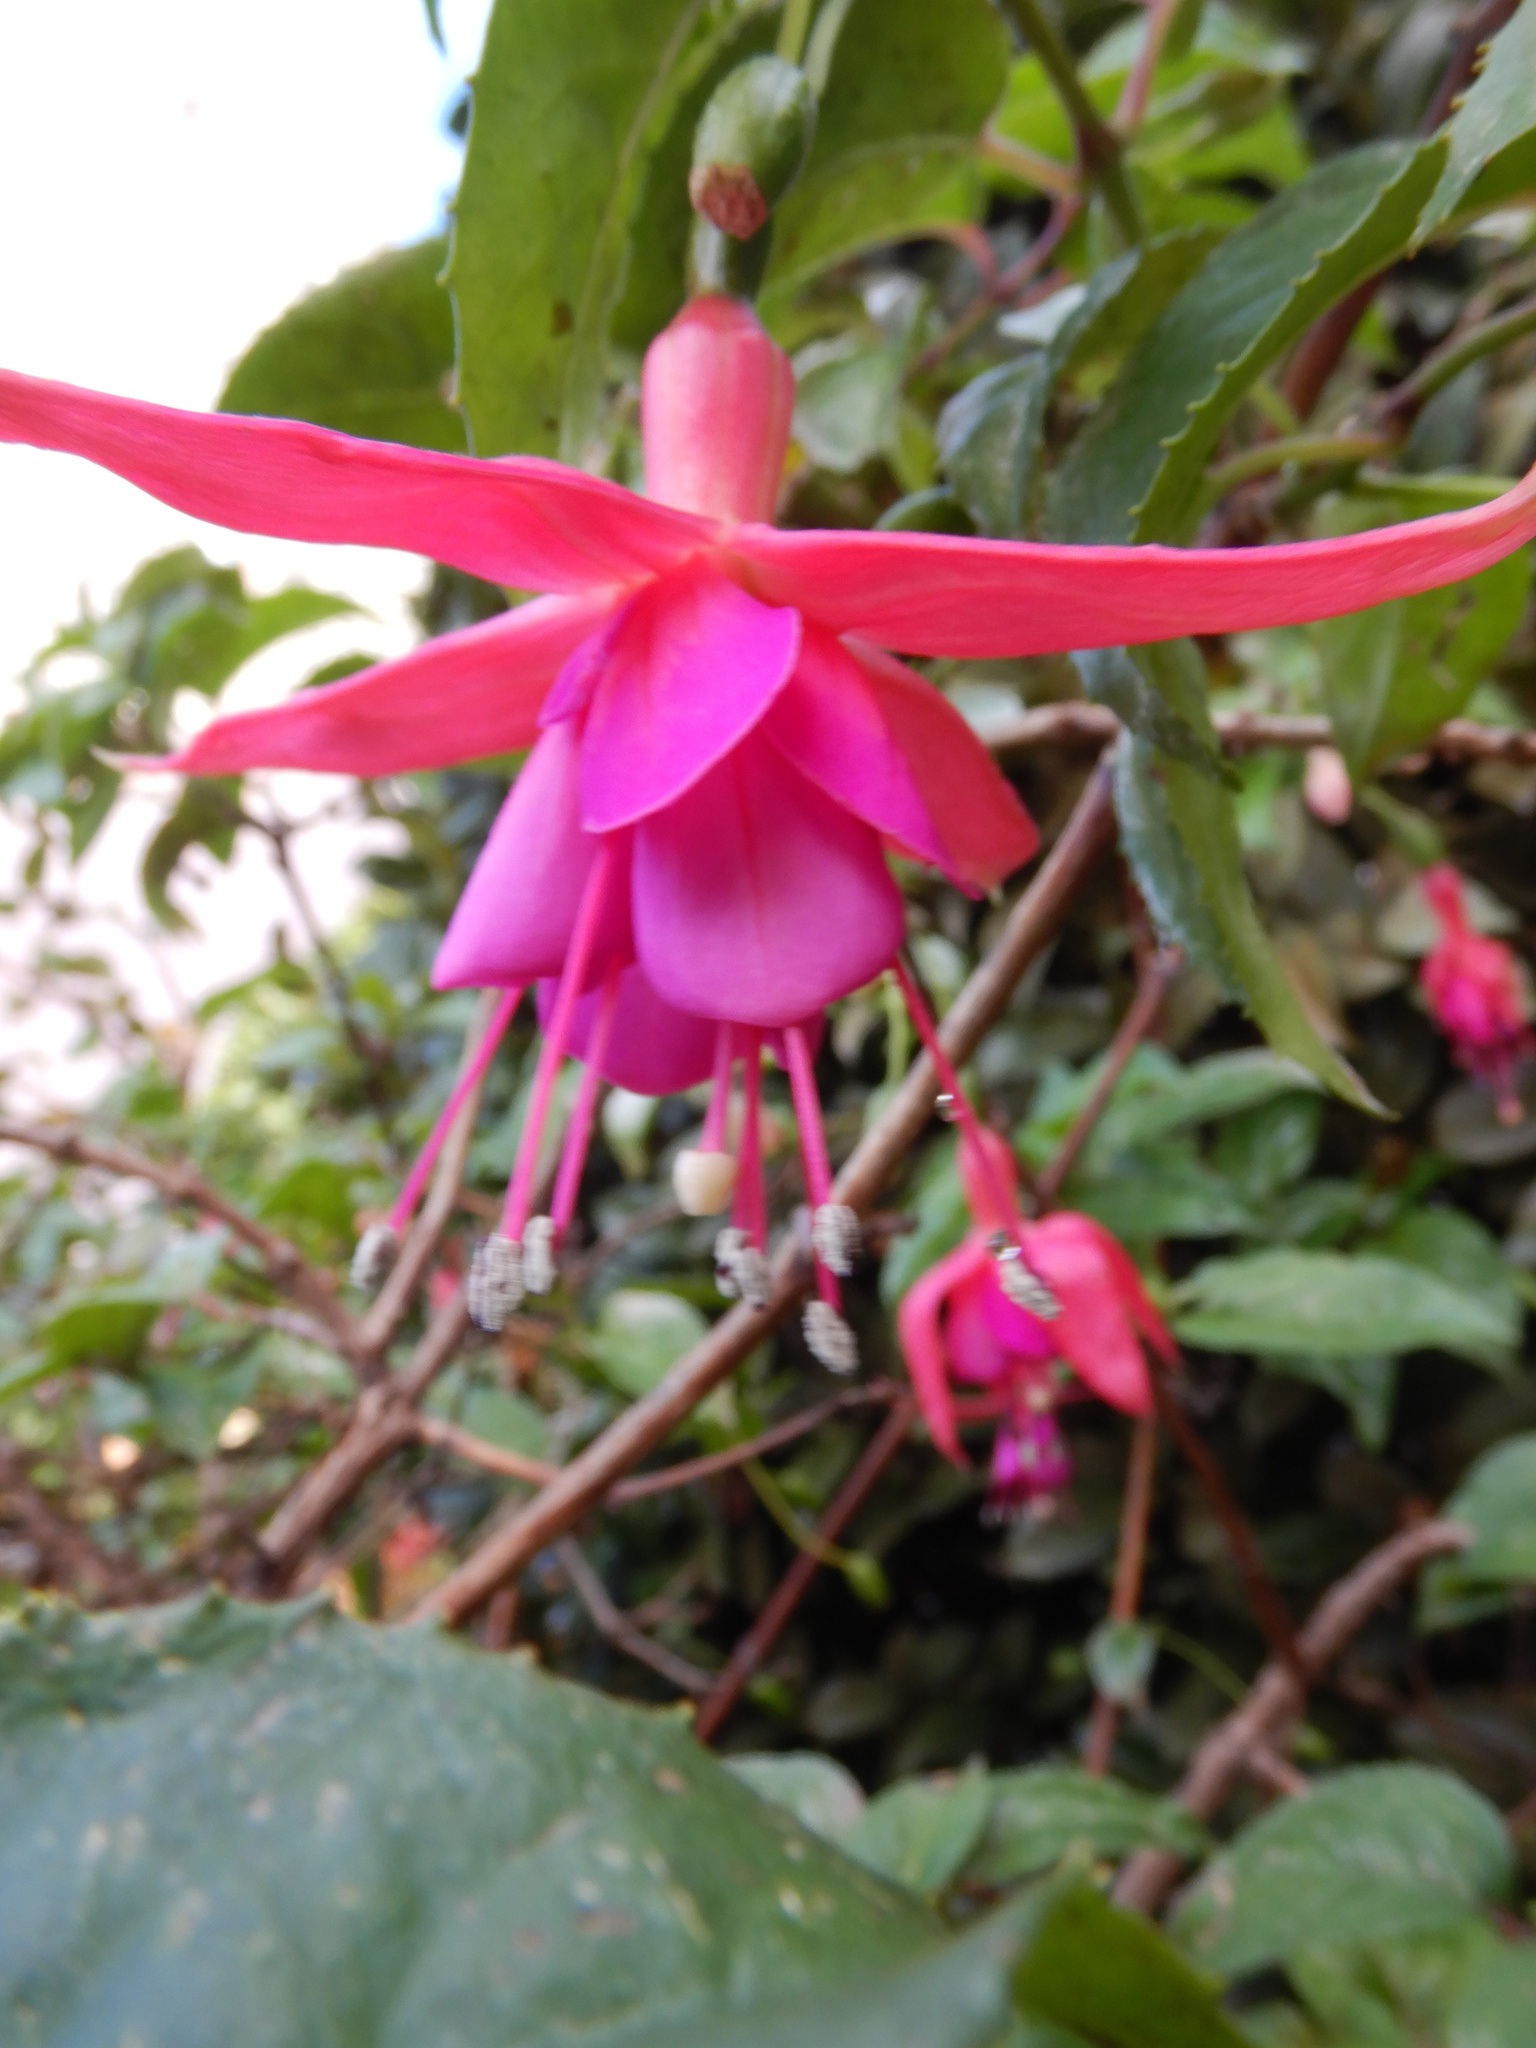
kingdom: Plantae
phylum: Tracheophyta
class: Magnoliopsida
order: Myrtales
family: Onagraceae
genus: Fuchsia
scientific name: Fuchsia magellanica
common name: Hardy fuchsia
